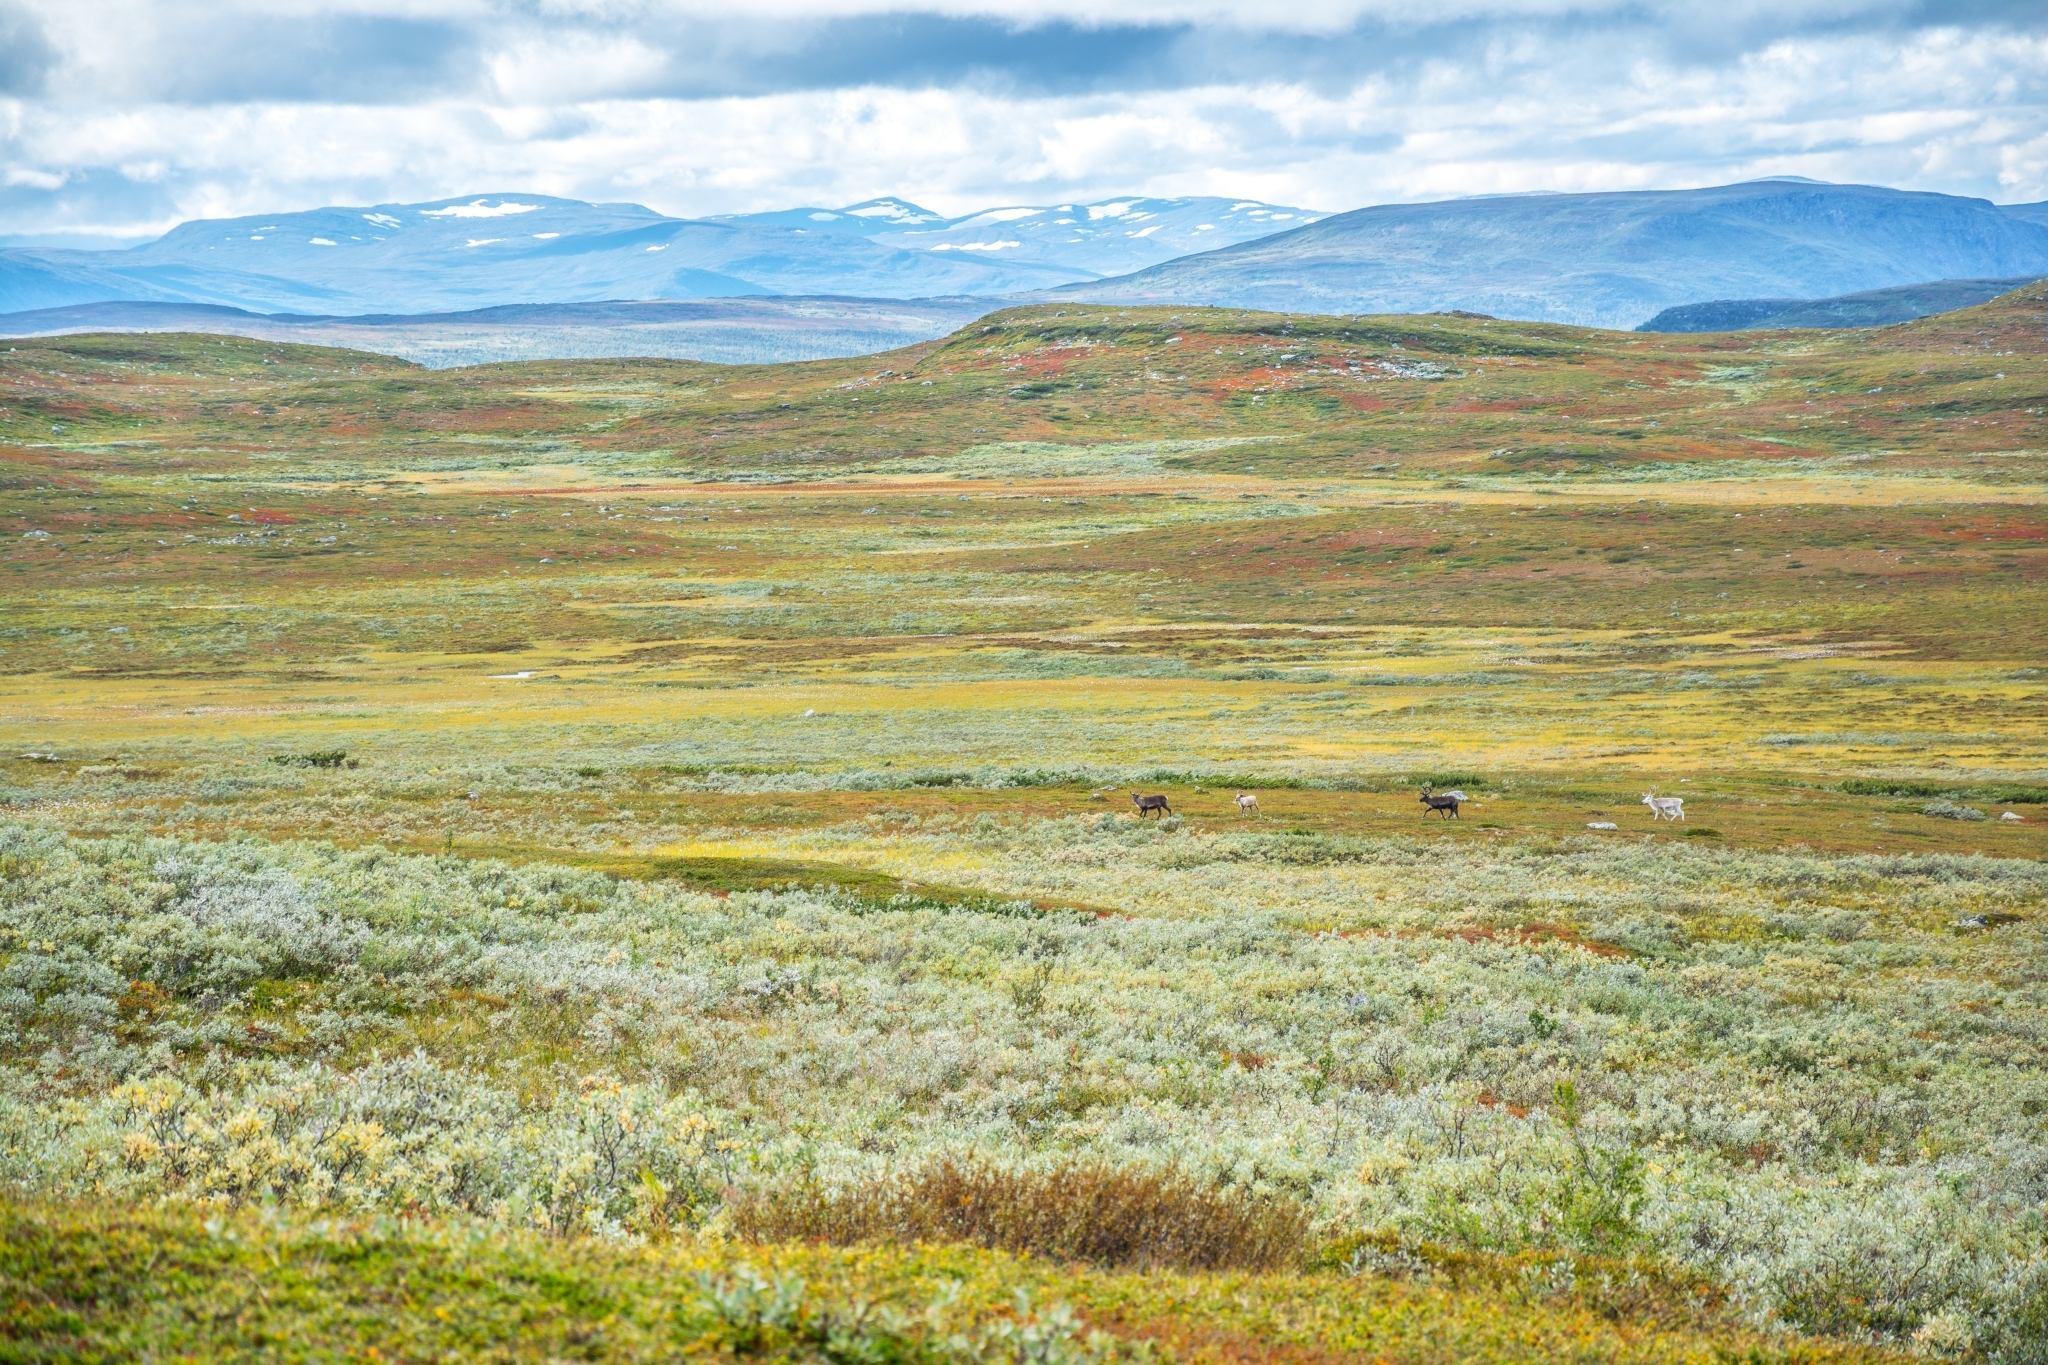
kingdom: Animalia
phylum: Chordata
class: Mammalia
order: Artiodactyla
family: Cervidae
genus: Rangifer
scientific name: Rangifer tarandus
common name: Reindeer
